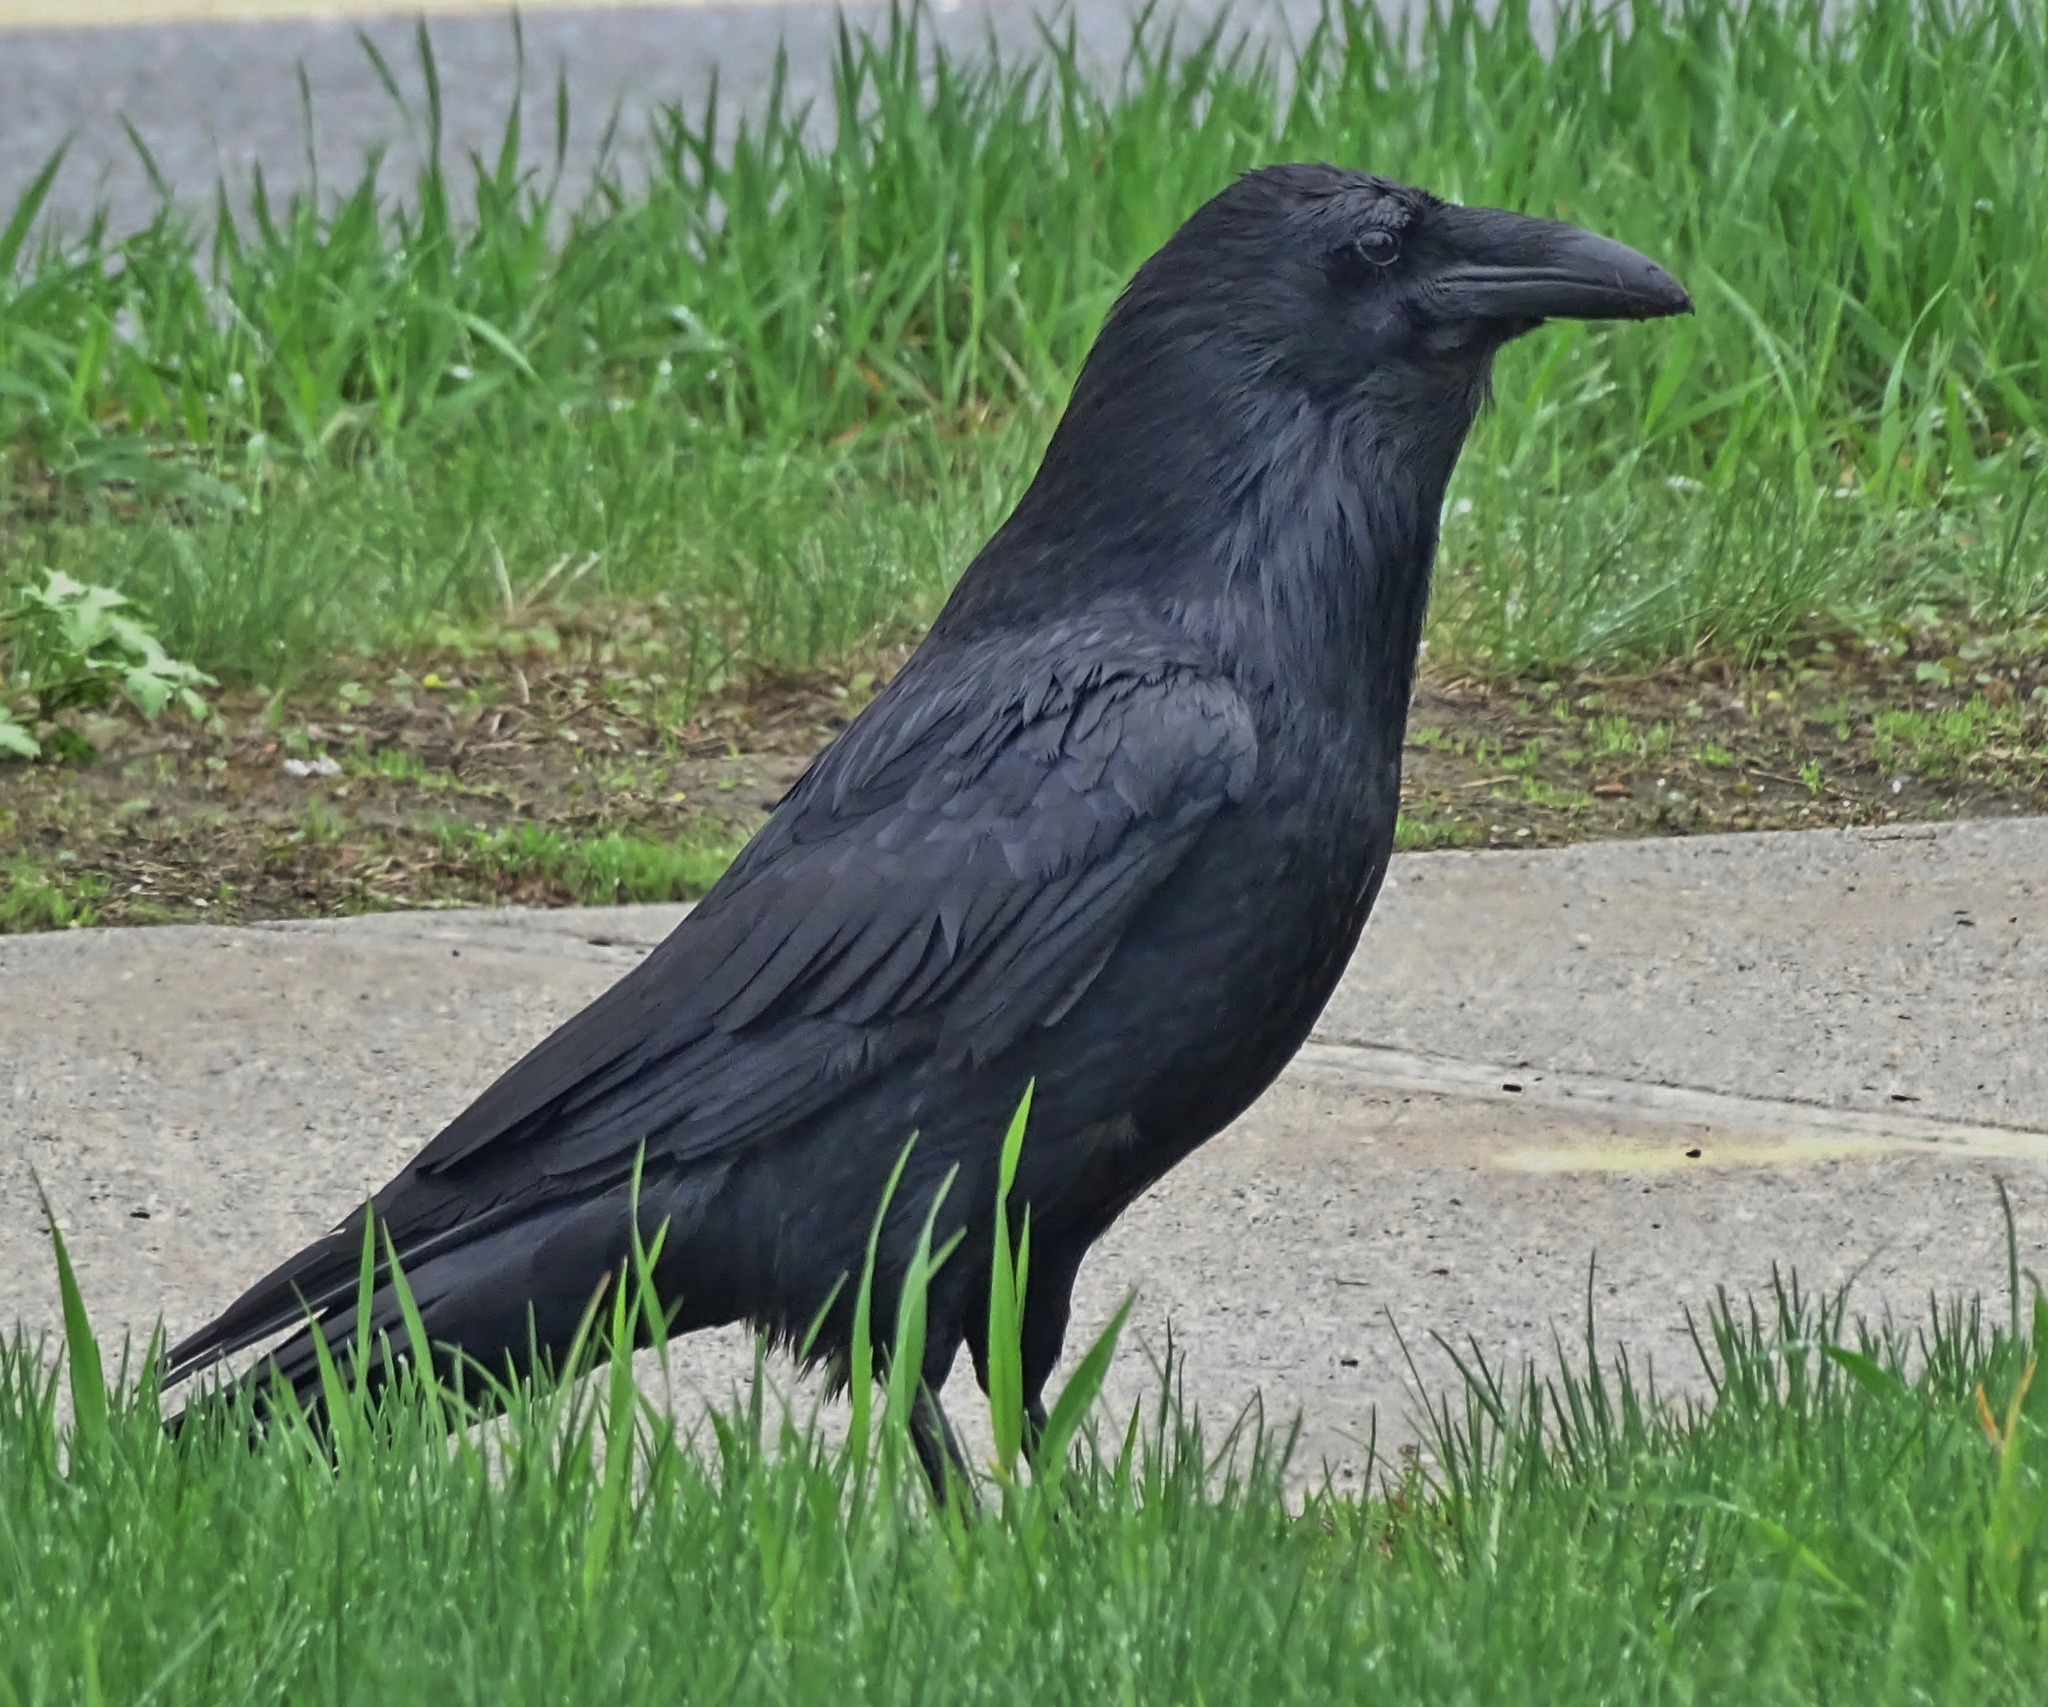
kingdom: Animalia
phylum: Chordata
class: Aves
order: Passeriformes
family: Corvidae
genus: Corvus
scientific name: Corvus corax
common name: Common raven
